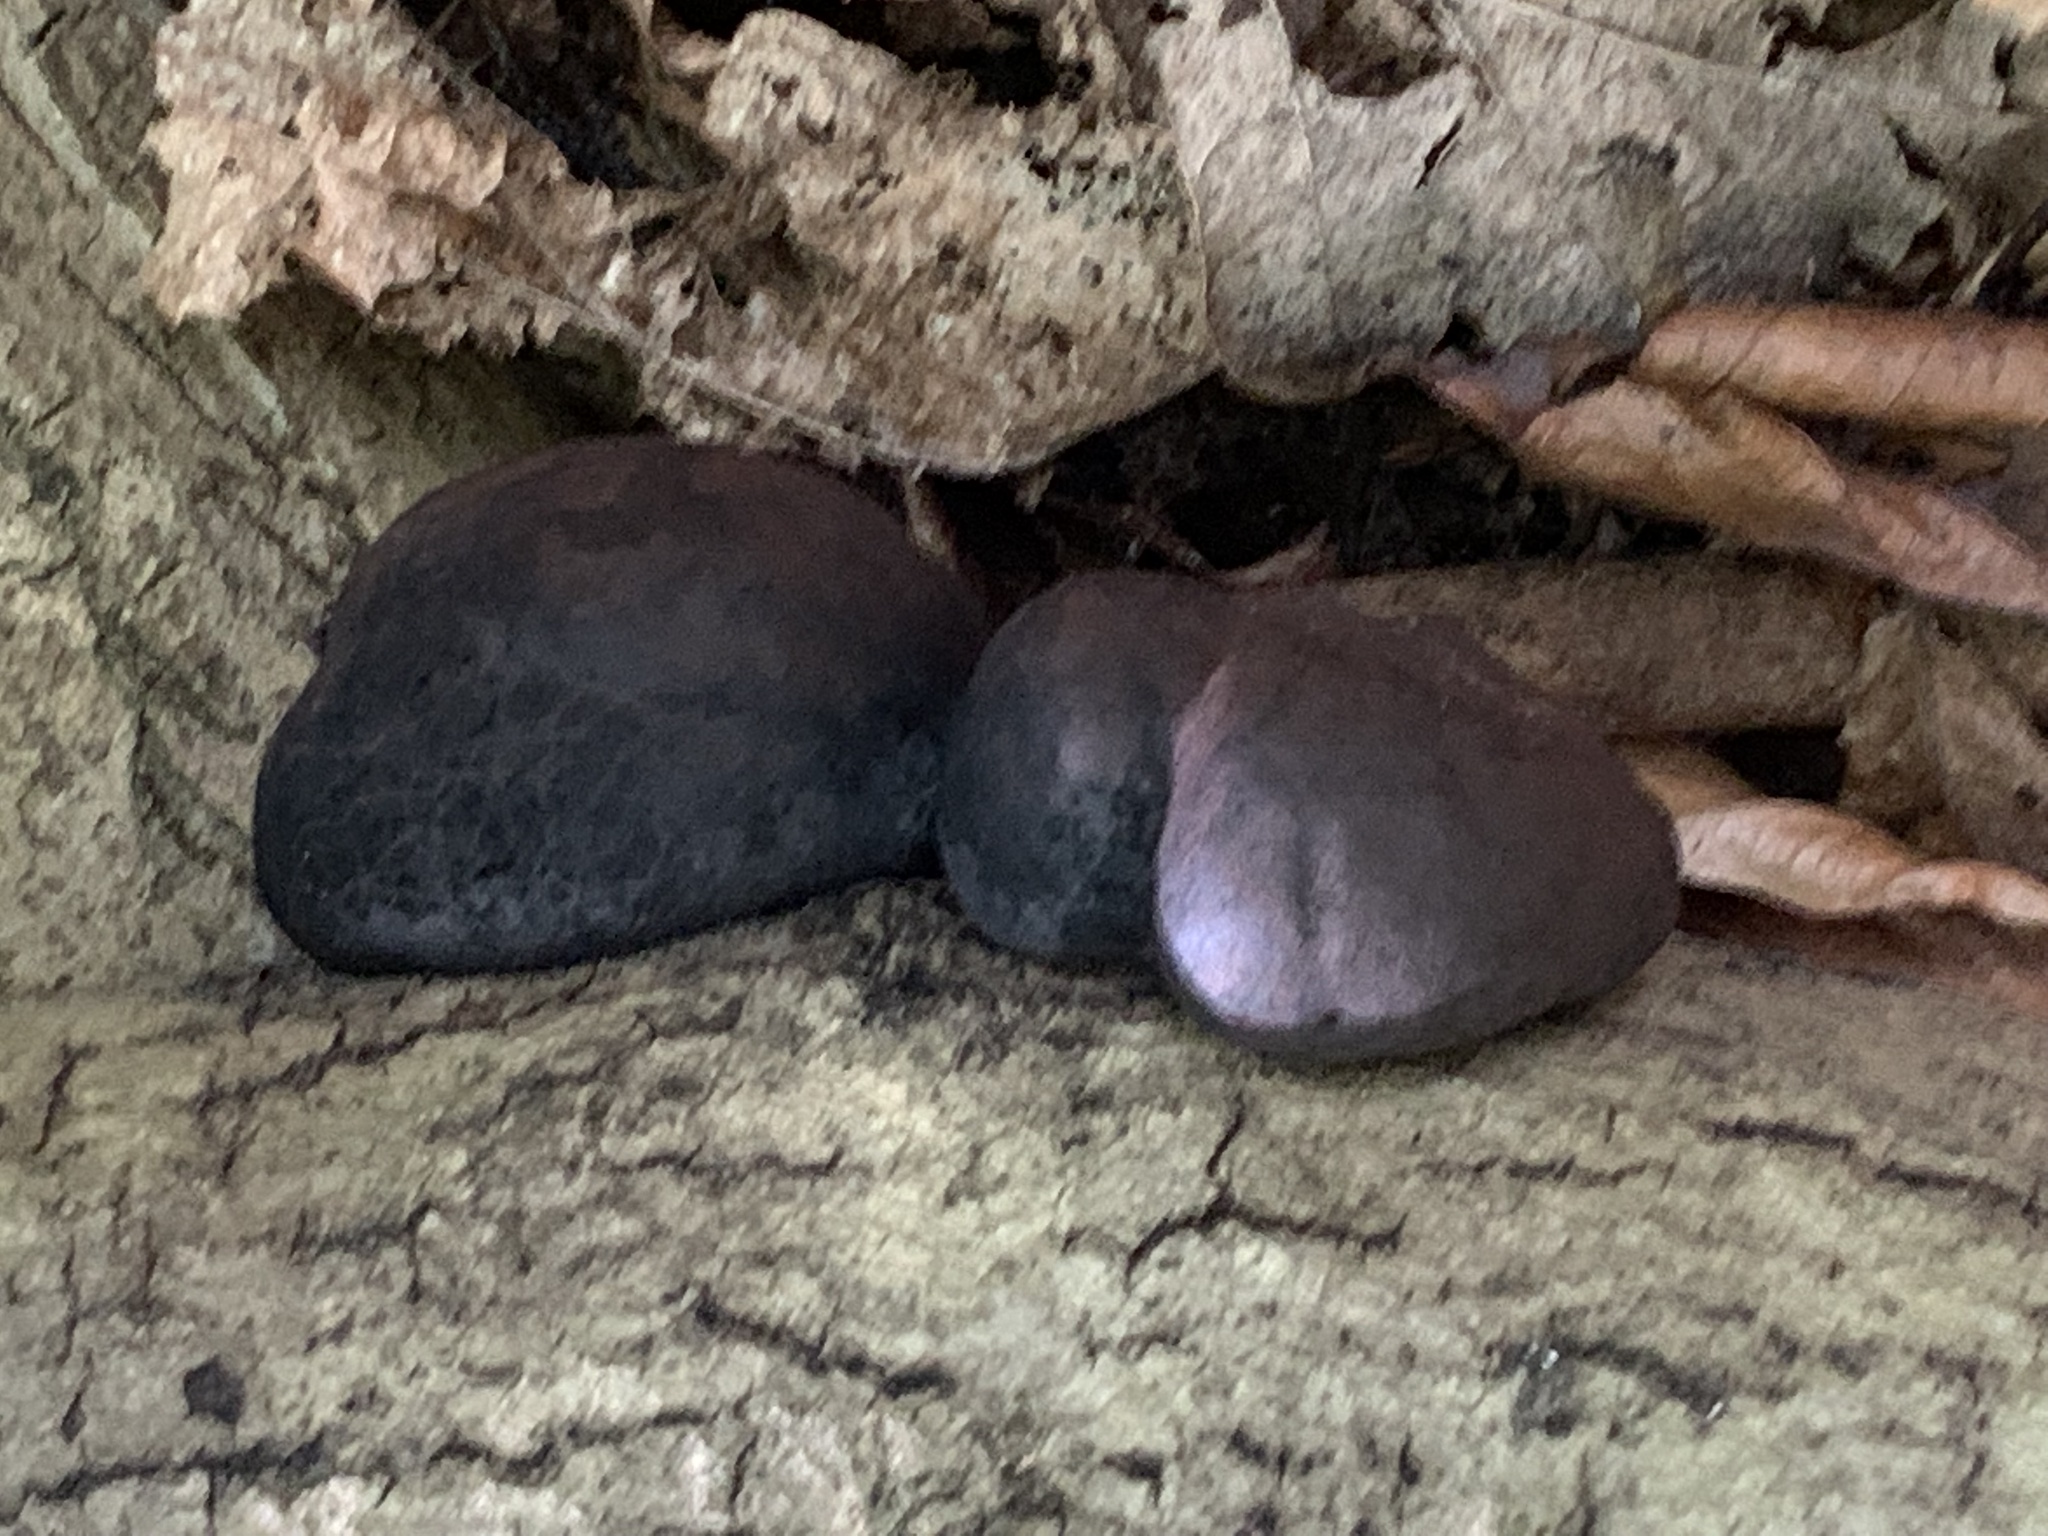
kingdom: Fungi
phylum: Ascomycota
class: Sordariomycetes
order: Xylariales
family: Hypoxylaceae
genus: Daldinia
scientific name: Daldinia concentrica
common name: Cramp balls
